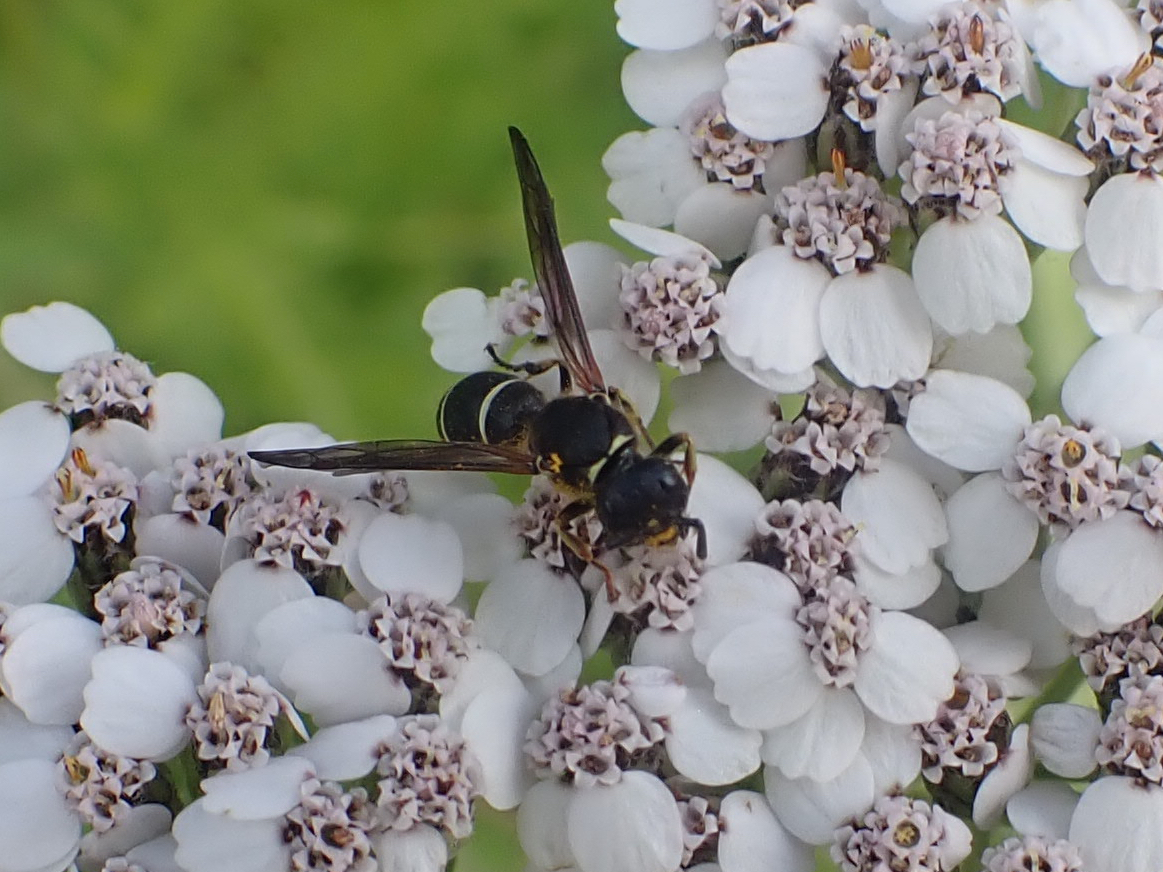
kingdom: Animalia
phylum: Arthropoda
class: Insecta
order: Hymenoptera
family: Vespidae
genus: Ancistrocerus
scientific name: Ancistrocerus albolacteus
